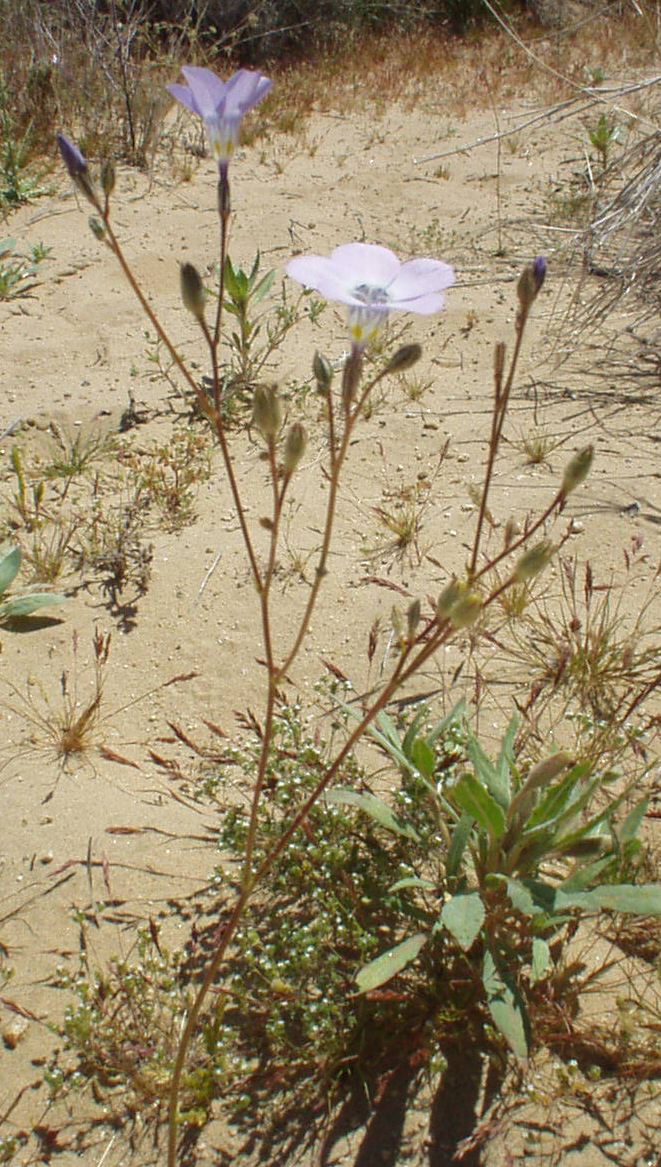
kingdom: Plantae
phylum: Tracheophyta
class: Magnoliopsida
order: Ericales
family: Polemoniaceae
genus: Gilia
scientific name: Gilia latiflora
